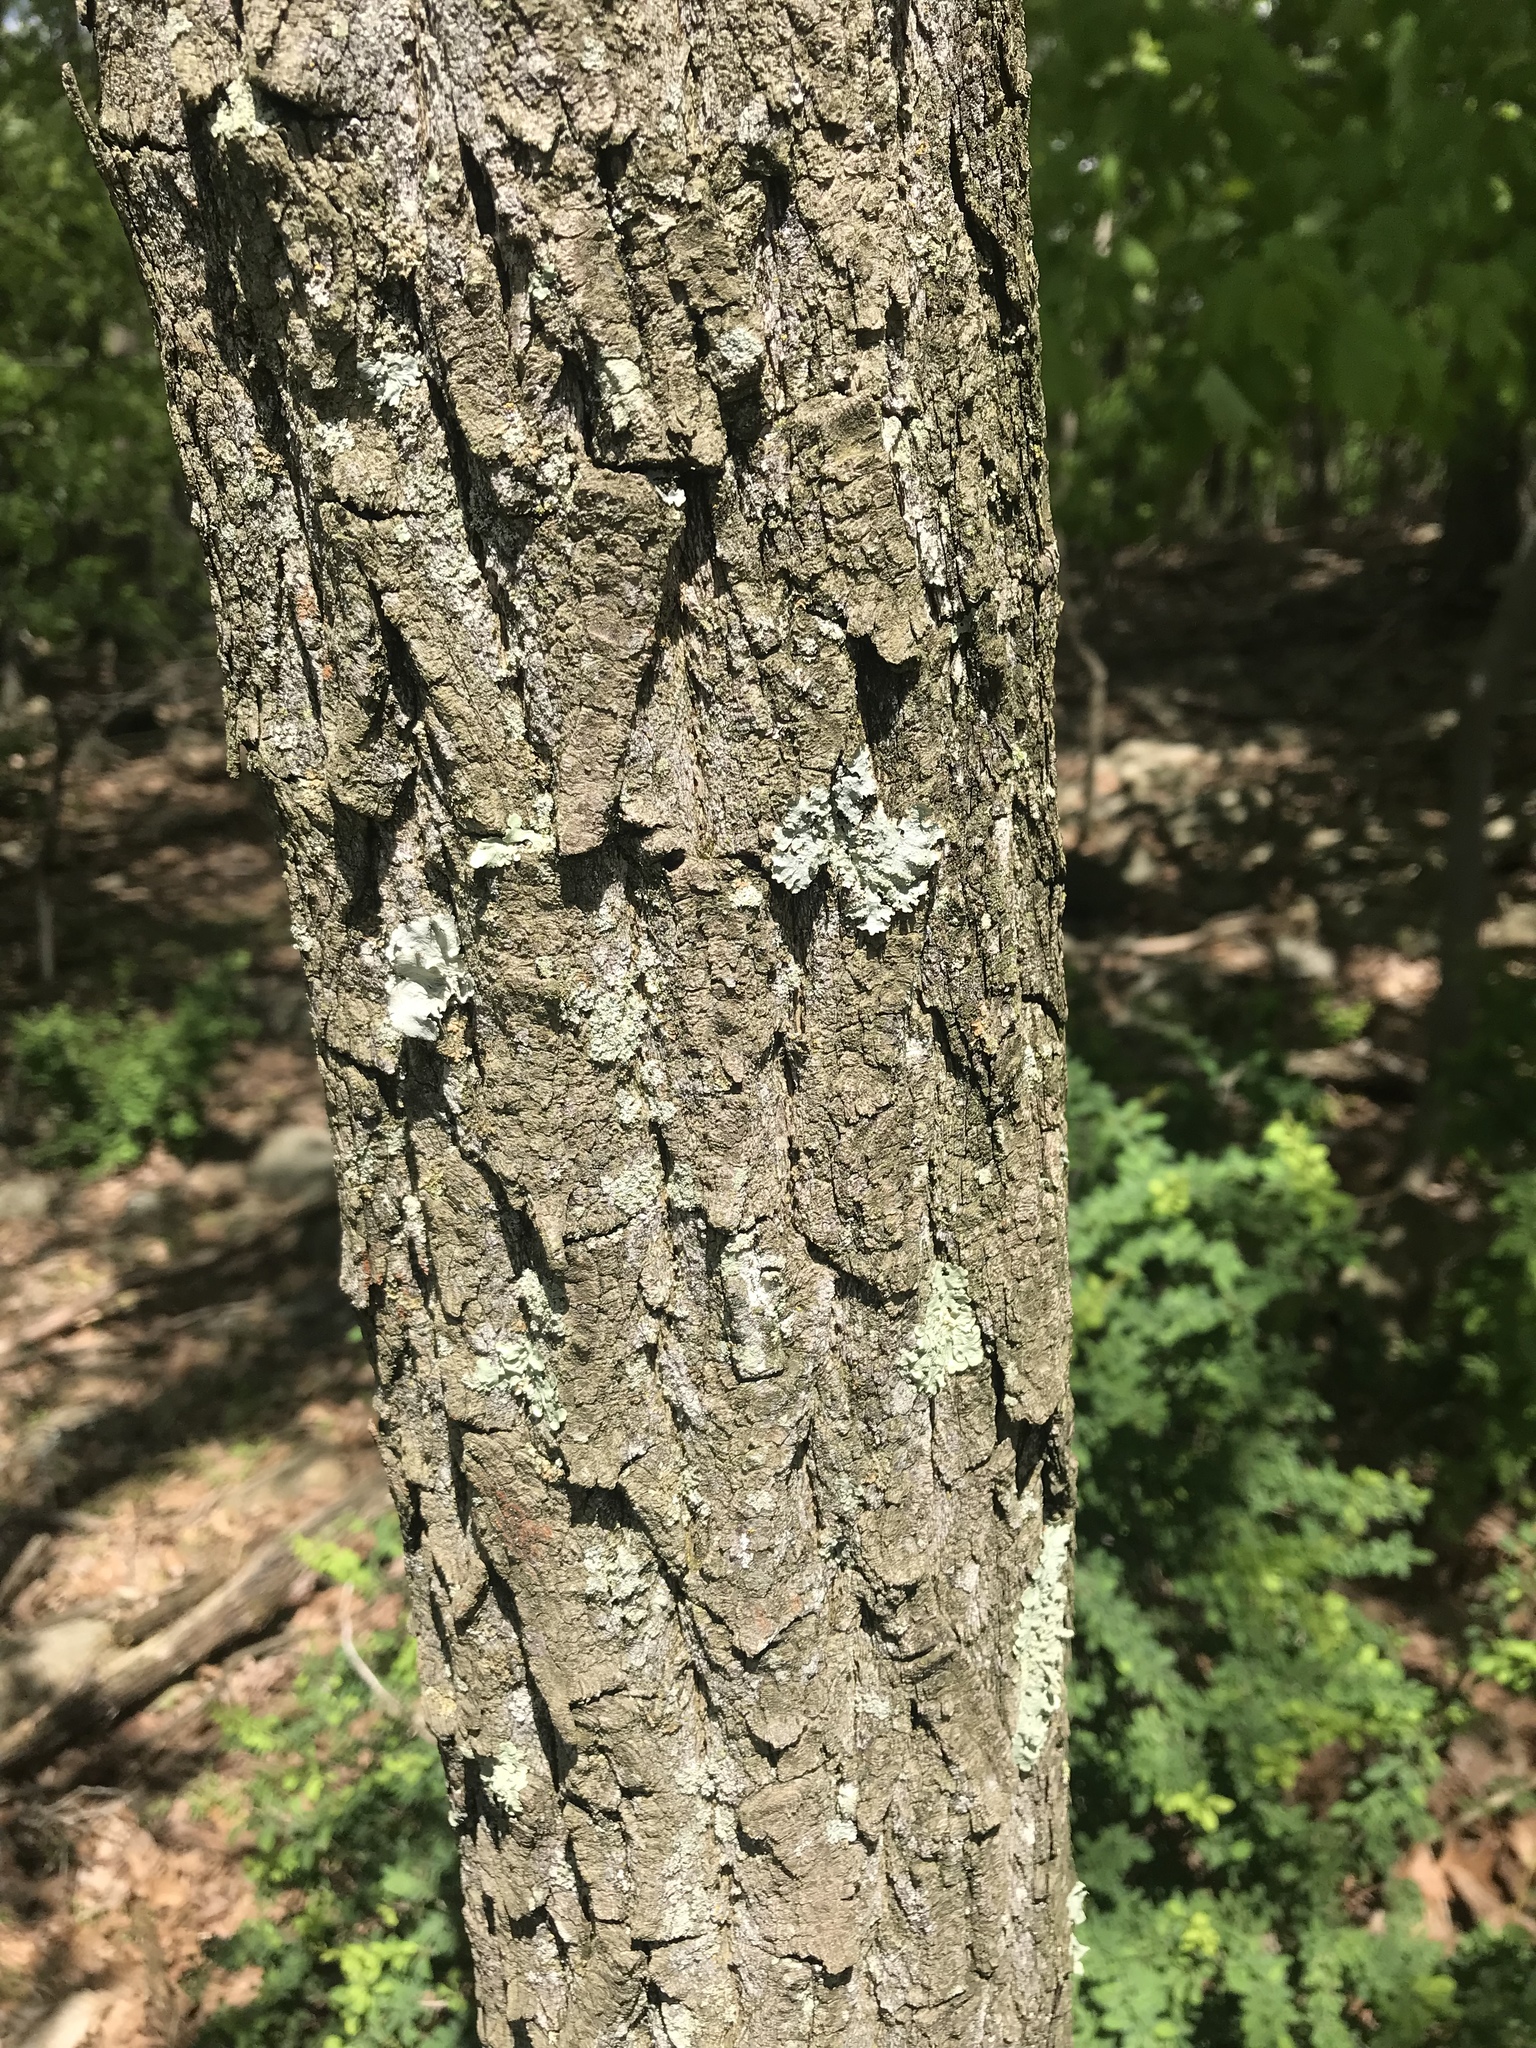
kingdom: Plantae
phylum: Tracheophyta
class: Magnoliopsida
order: Laurales
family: Lauraceae
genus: Sassafras
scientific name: Sassafras albidum
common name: Sassafras
